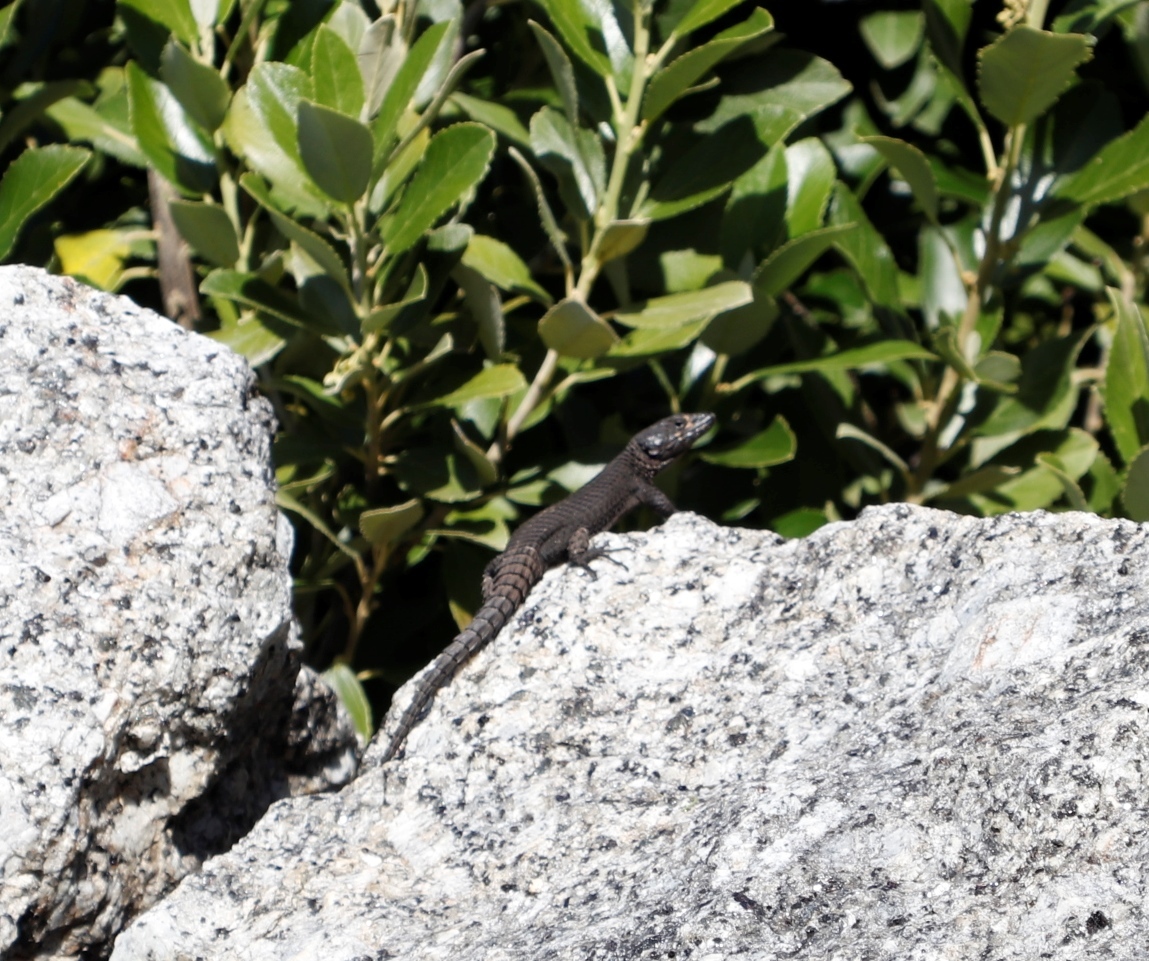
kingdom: Animalia
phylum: Chordata
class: Squamata
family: Cordylidae
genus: Cordylus
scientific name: Cordylus niger
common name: Black girdled lizard
